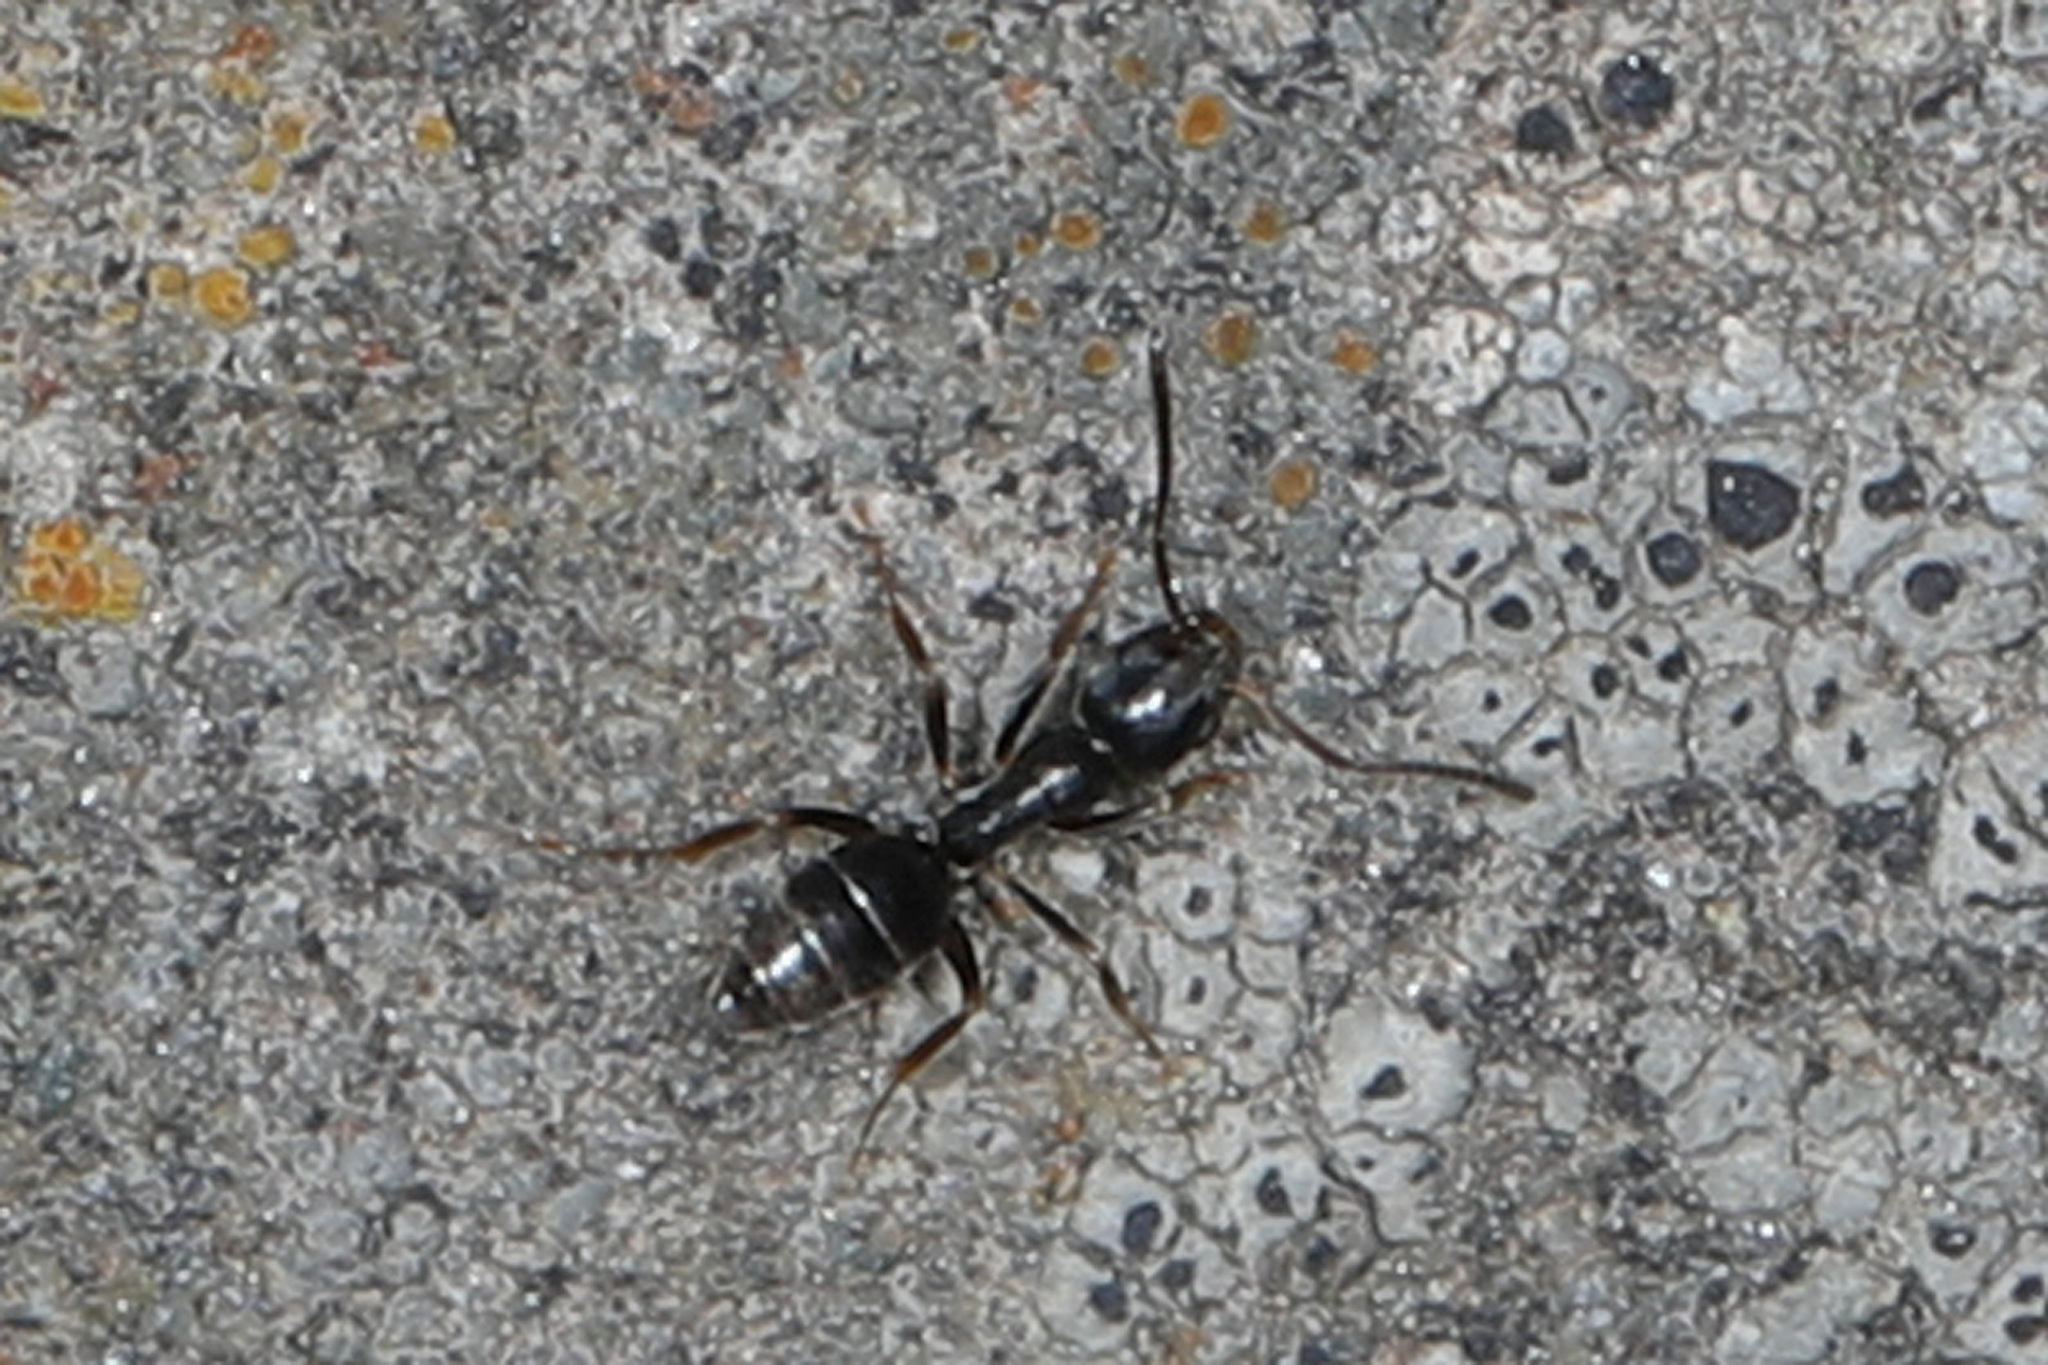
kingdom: Animalia
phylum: Arthropoda
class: Insecta
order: Hymenoptera
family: Formicidae
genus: Tapinoma
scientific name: Tapinoma sessile
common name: Odorous house ant
